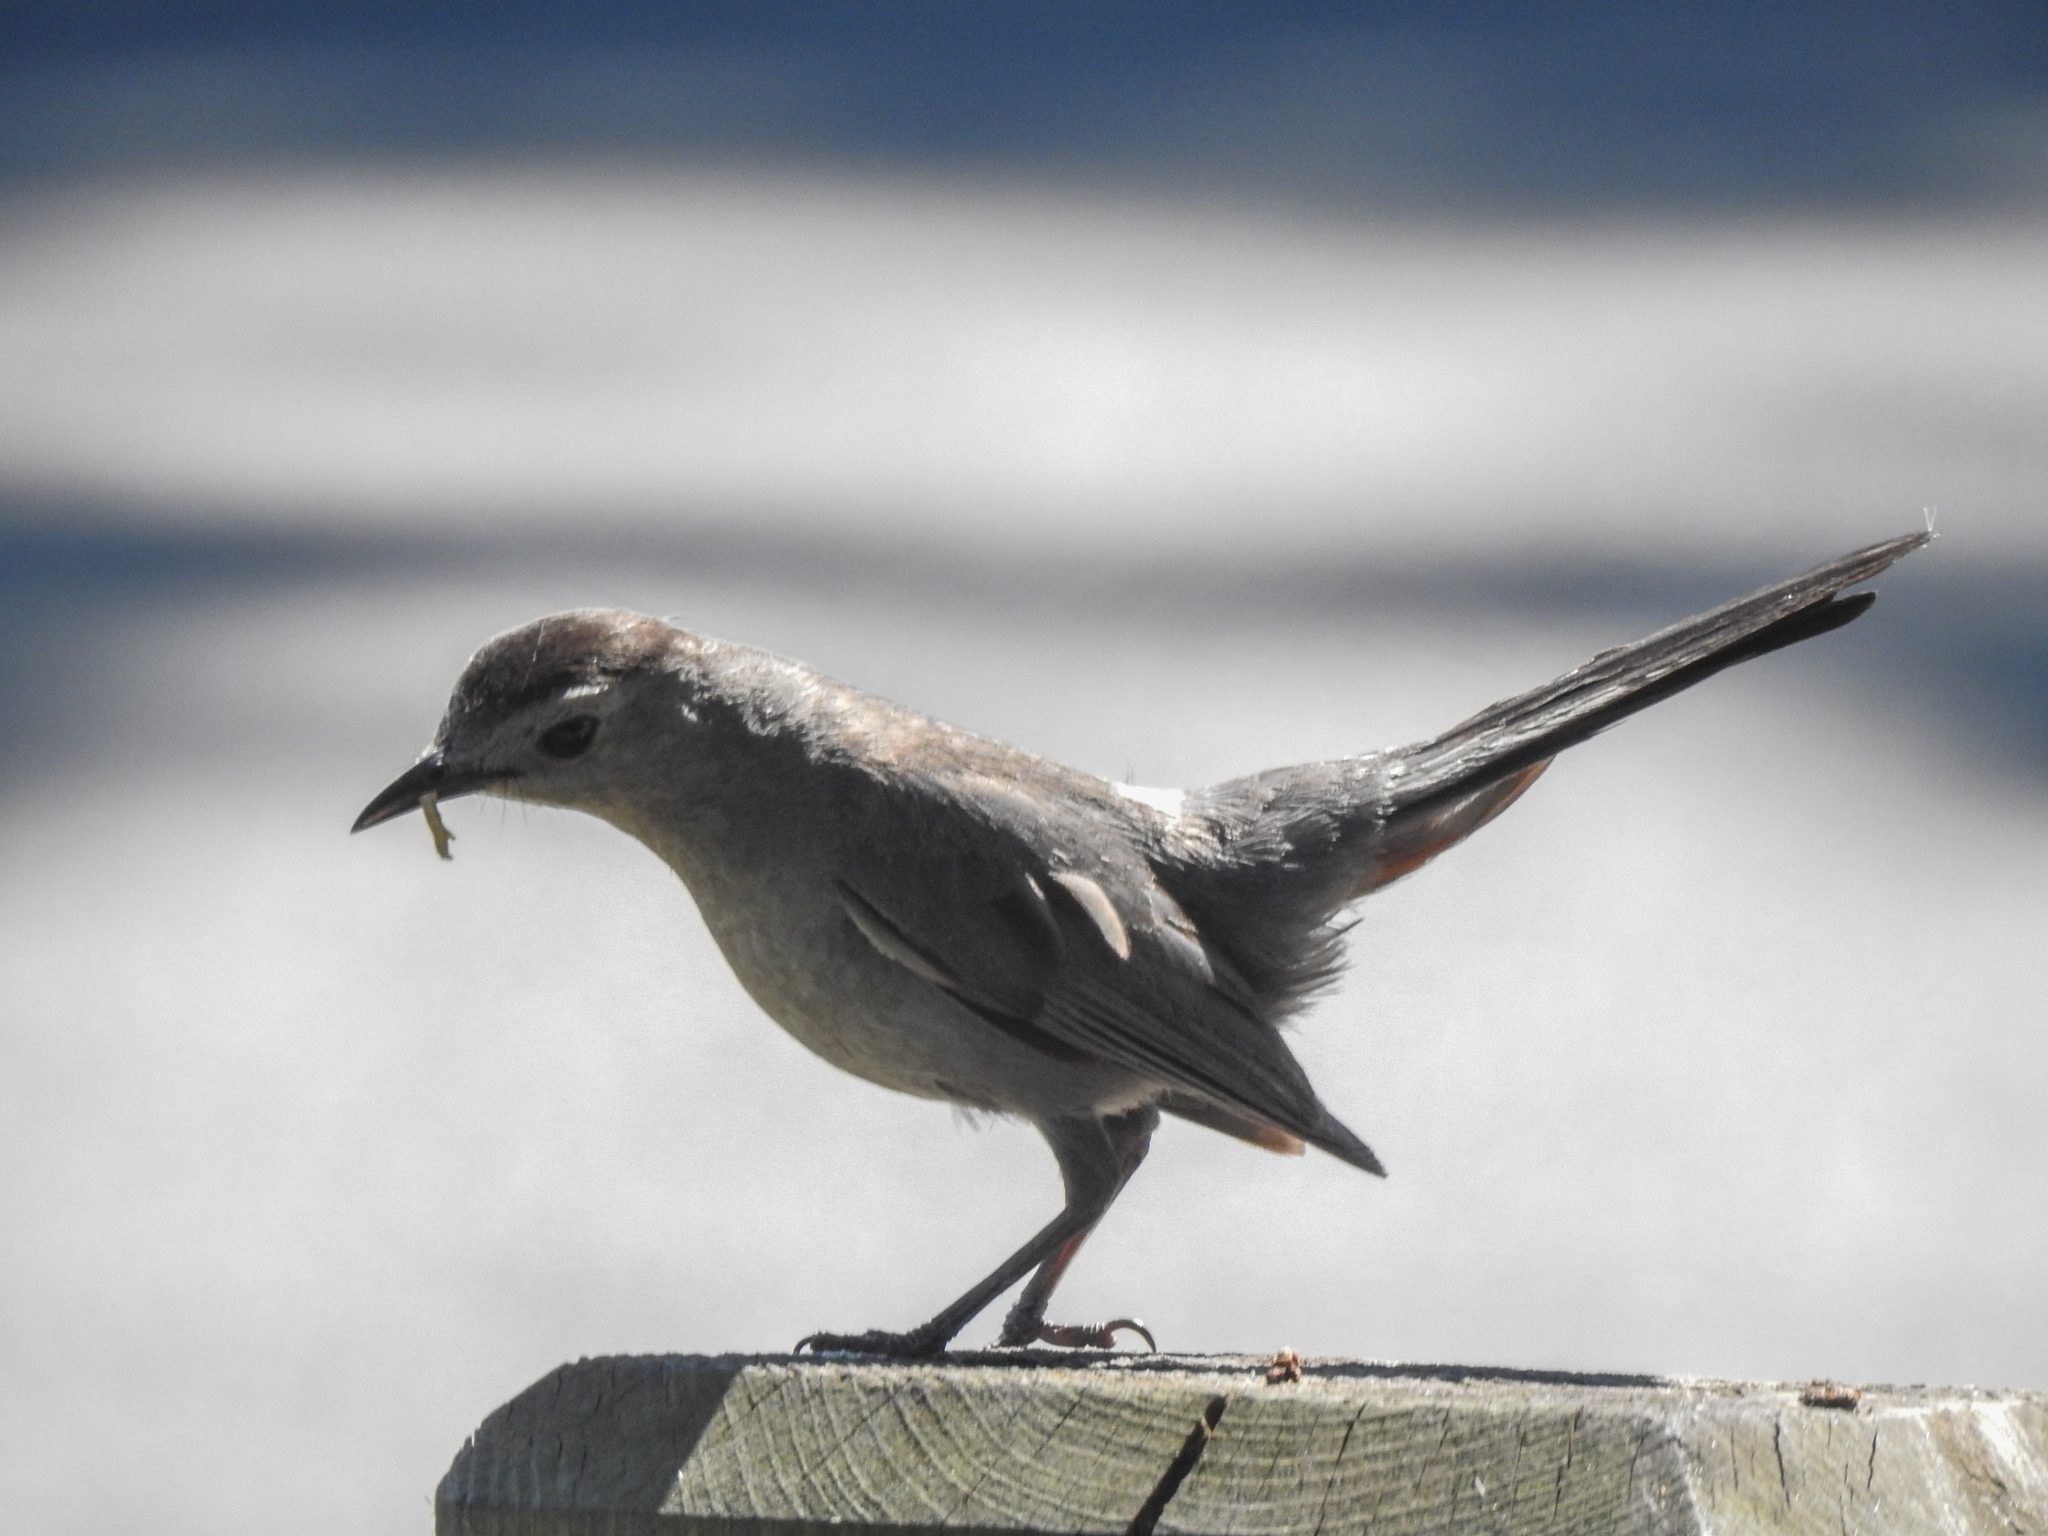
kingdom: Animalia
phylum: Chordata
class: Aves
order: Passeriformes
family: Mimidae
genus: Dumetella
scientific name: Dumetella carolinensis
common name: Gray catbird
